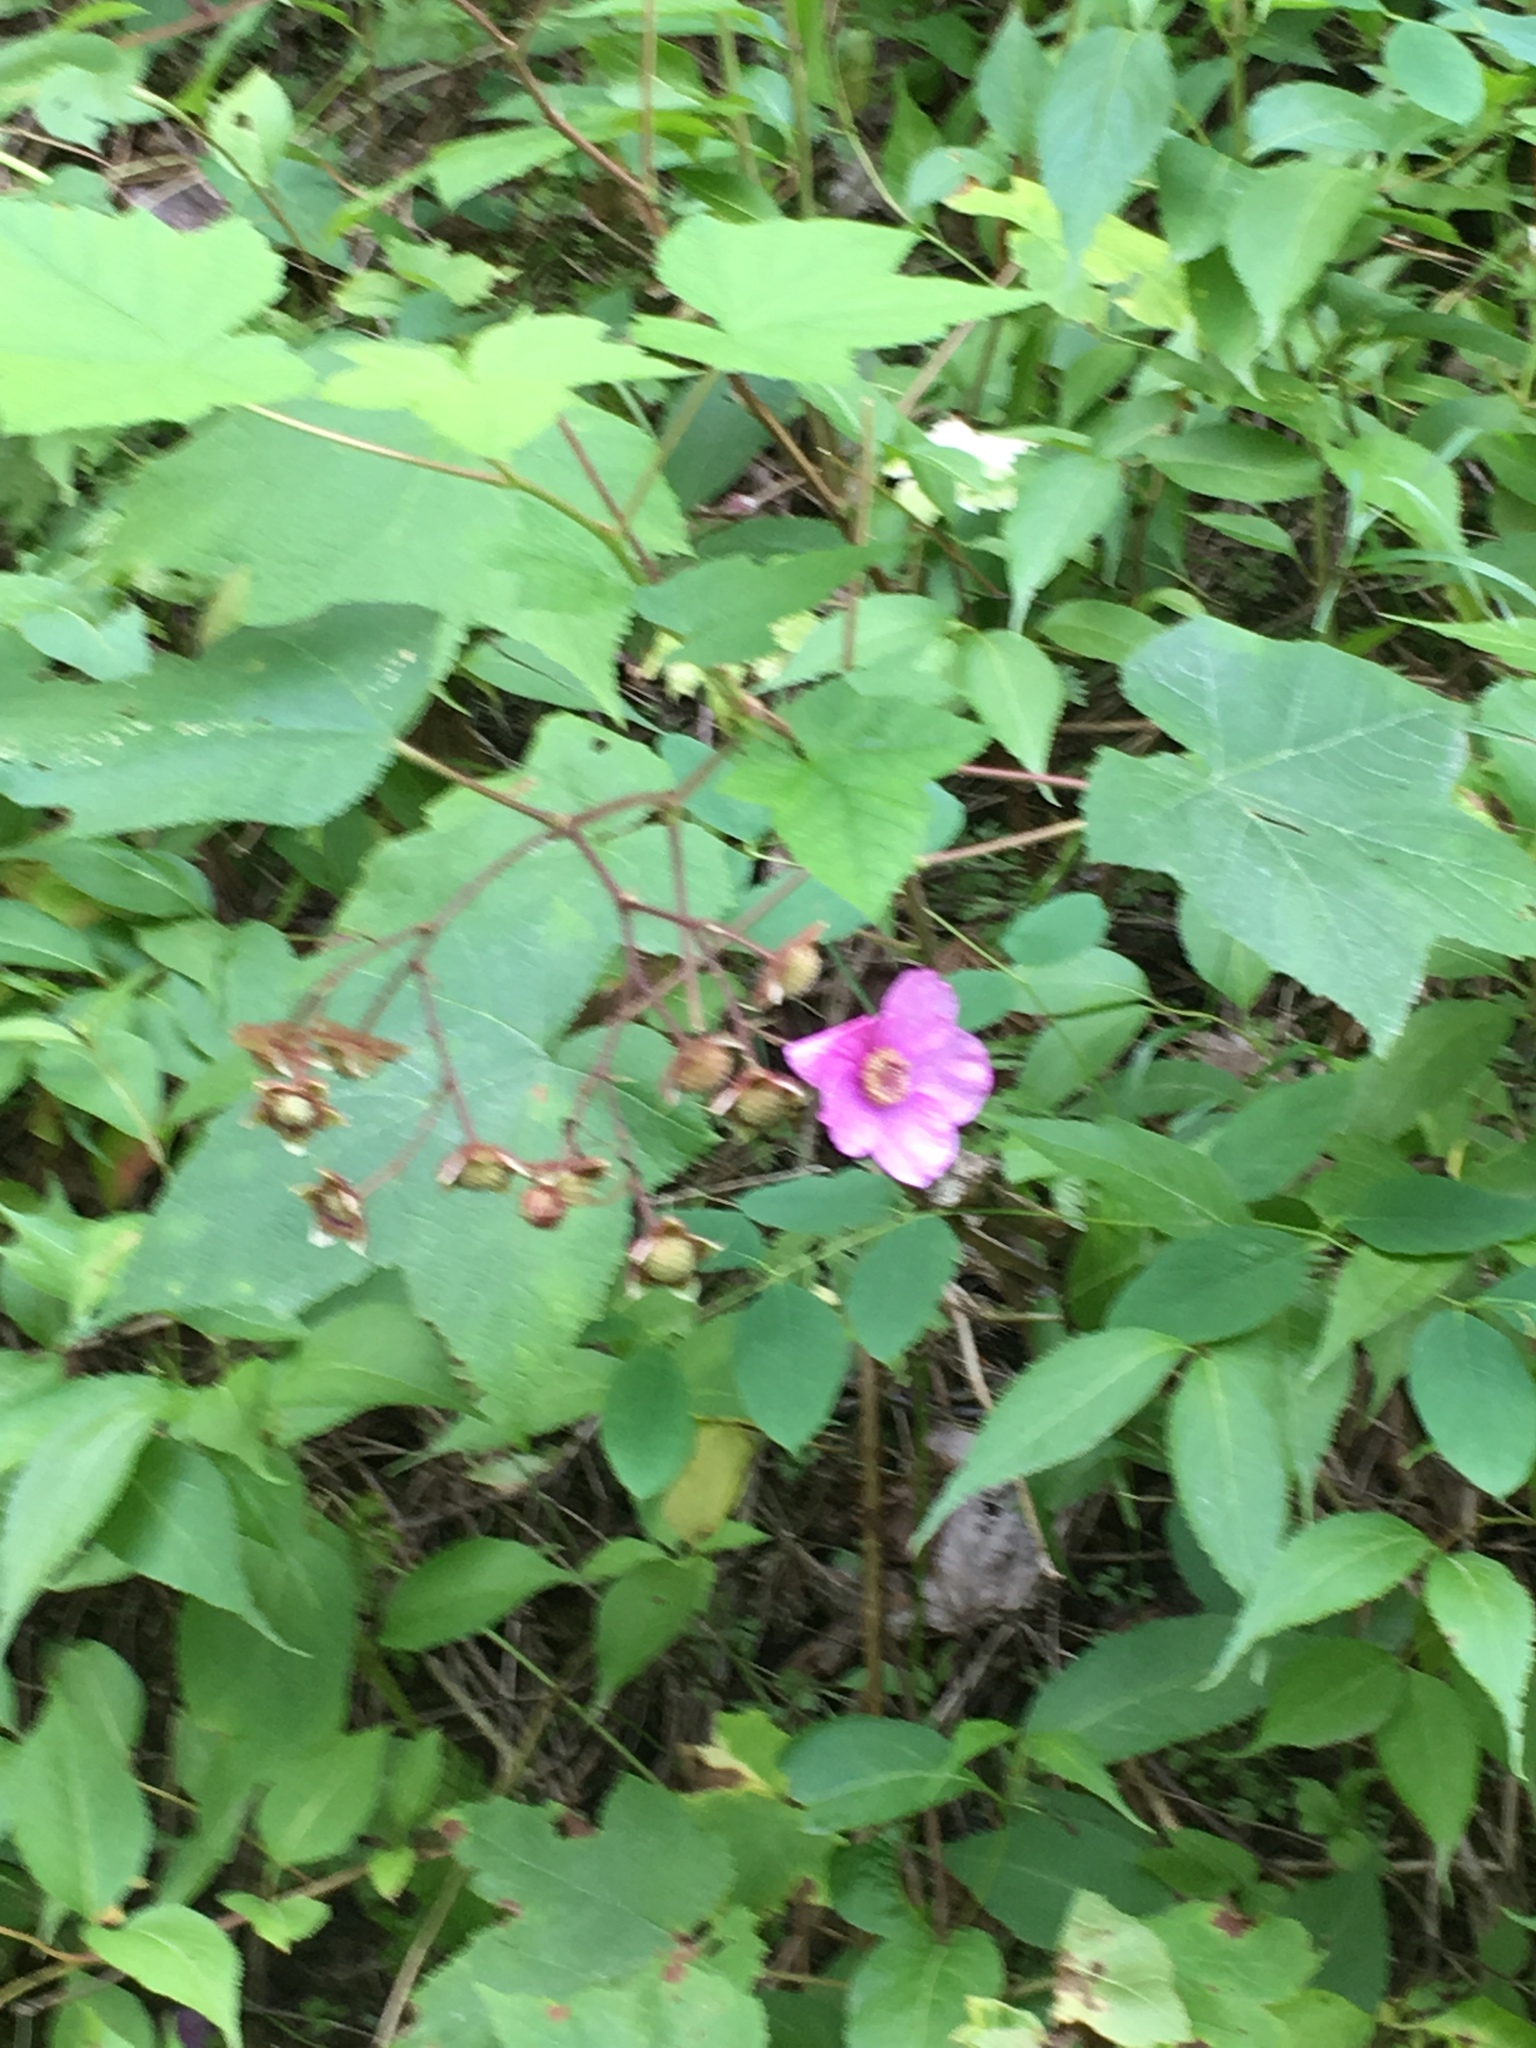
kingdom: Plantae
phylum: Tracheophyta
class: Magnoliopsida
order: Rosales
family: Rosaceae
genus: Rubus
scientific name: Rubus odoratus
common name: Purple-flowered raspberry
